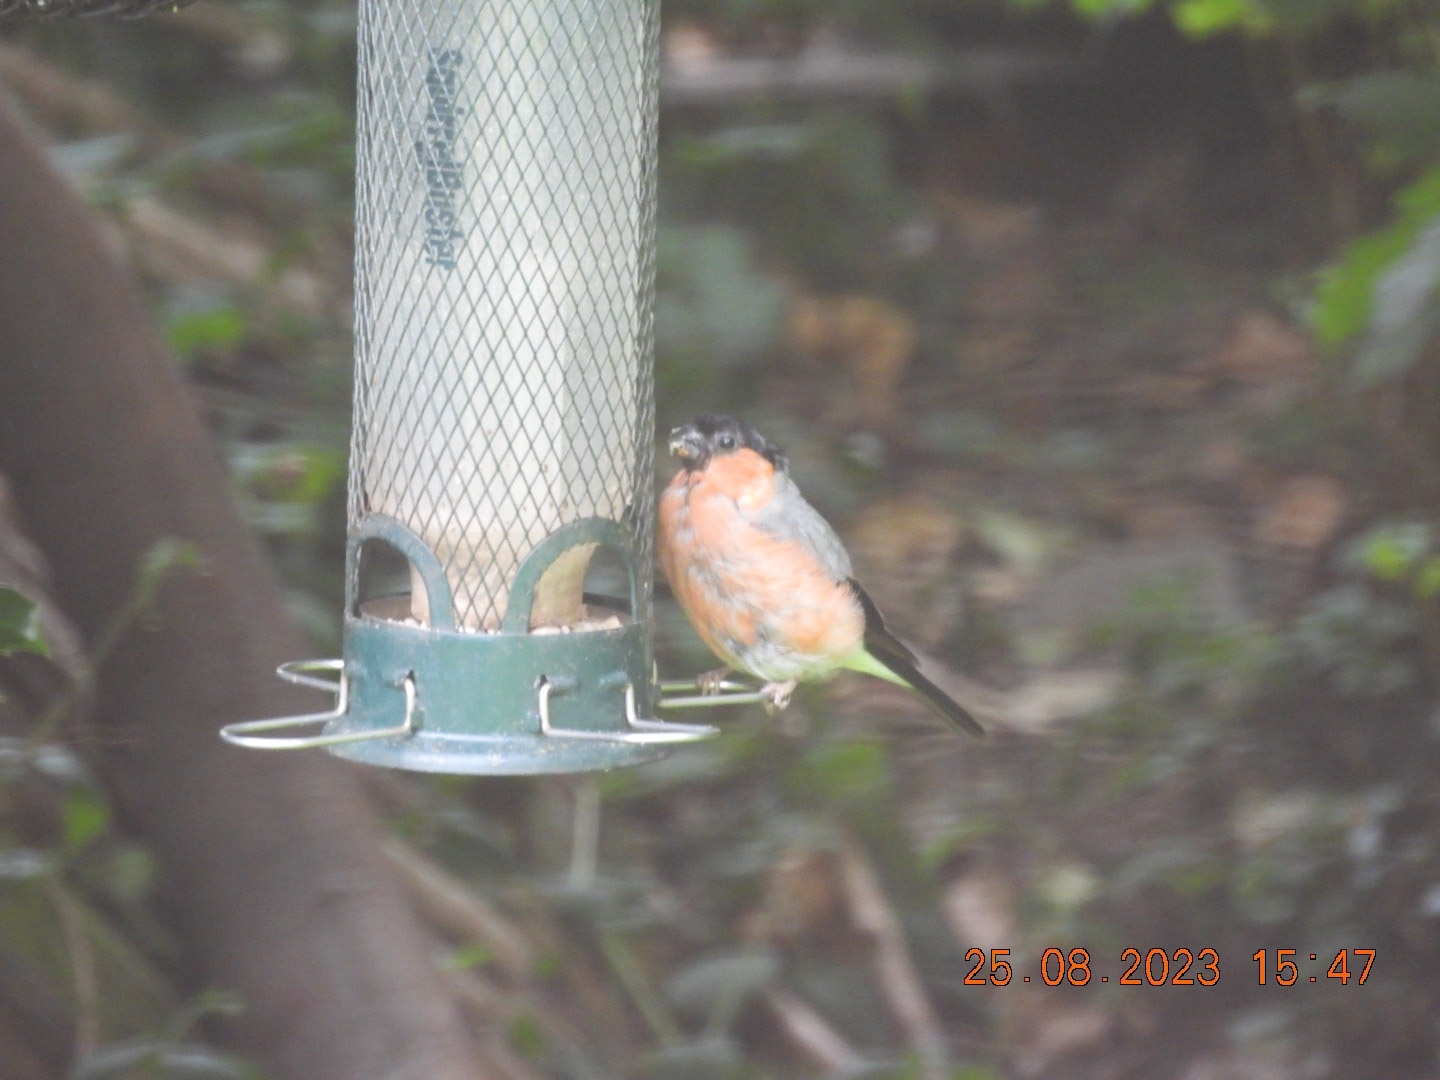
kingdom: Animalia
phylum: Chordata
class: Aves
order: Passeriformes
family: Fringillidae
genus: Pyrrhula
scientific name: Pyrrhula pyrrhula
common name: Eurasian bullfinch
